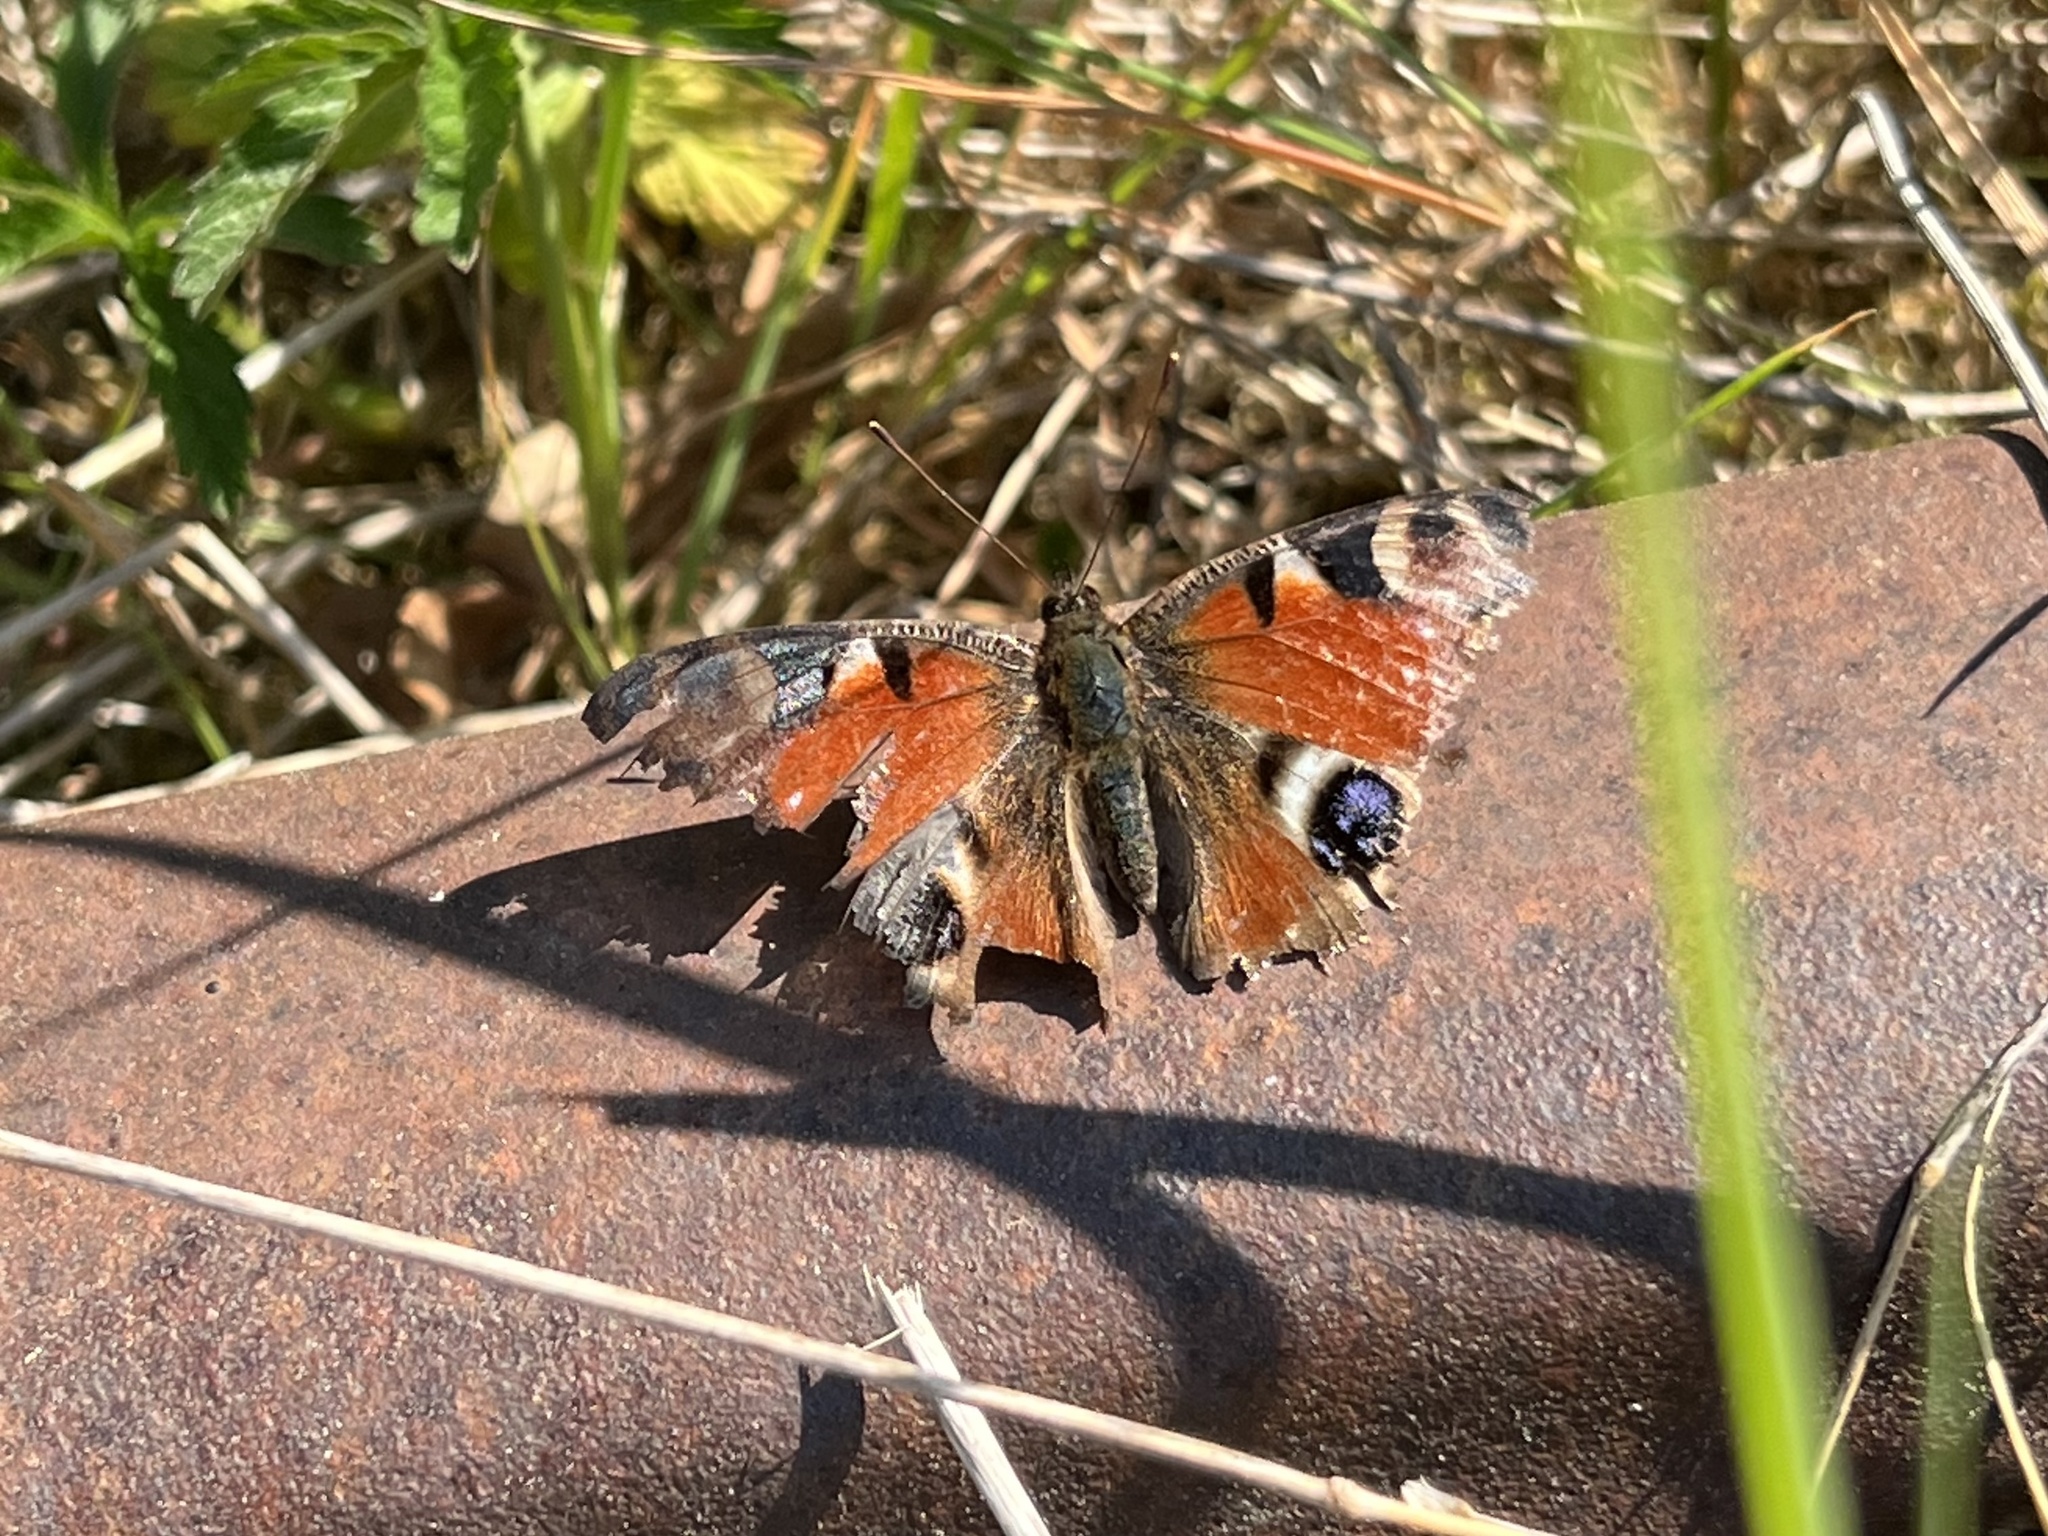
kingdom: Animalia
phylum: Arthropoda
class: Insecta
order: Lepidoptera
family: Nymphalidae
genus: Aglais
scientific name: Aglais io
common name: Peacock
